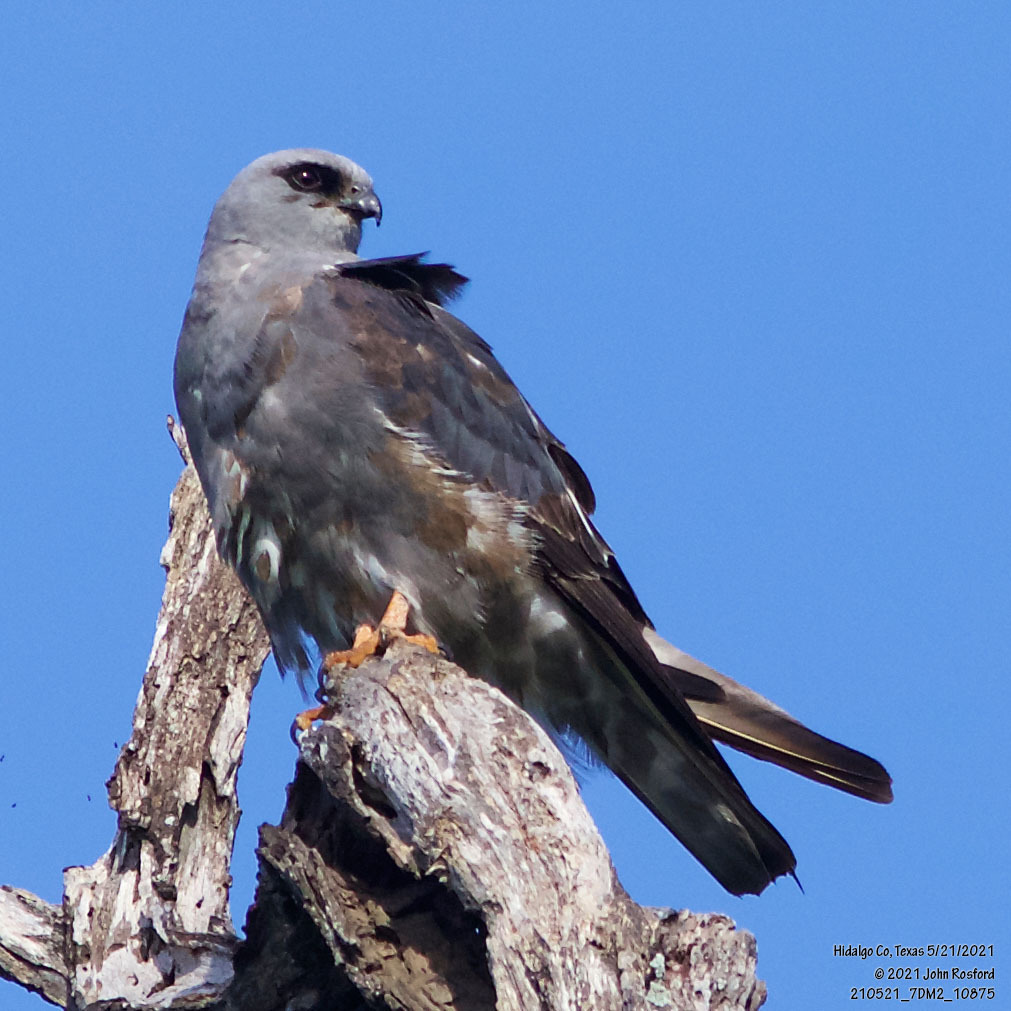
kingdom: Animalia
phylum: Chordata
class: Aves
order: Accipitriformes
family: Accipitridae
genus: Ictinia
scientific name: Ictinia mississippiensis
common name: Mississippi kite
